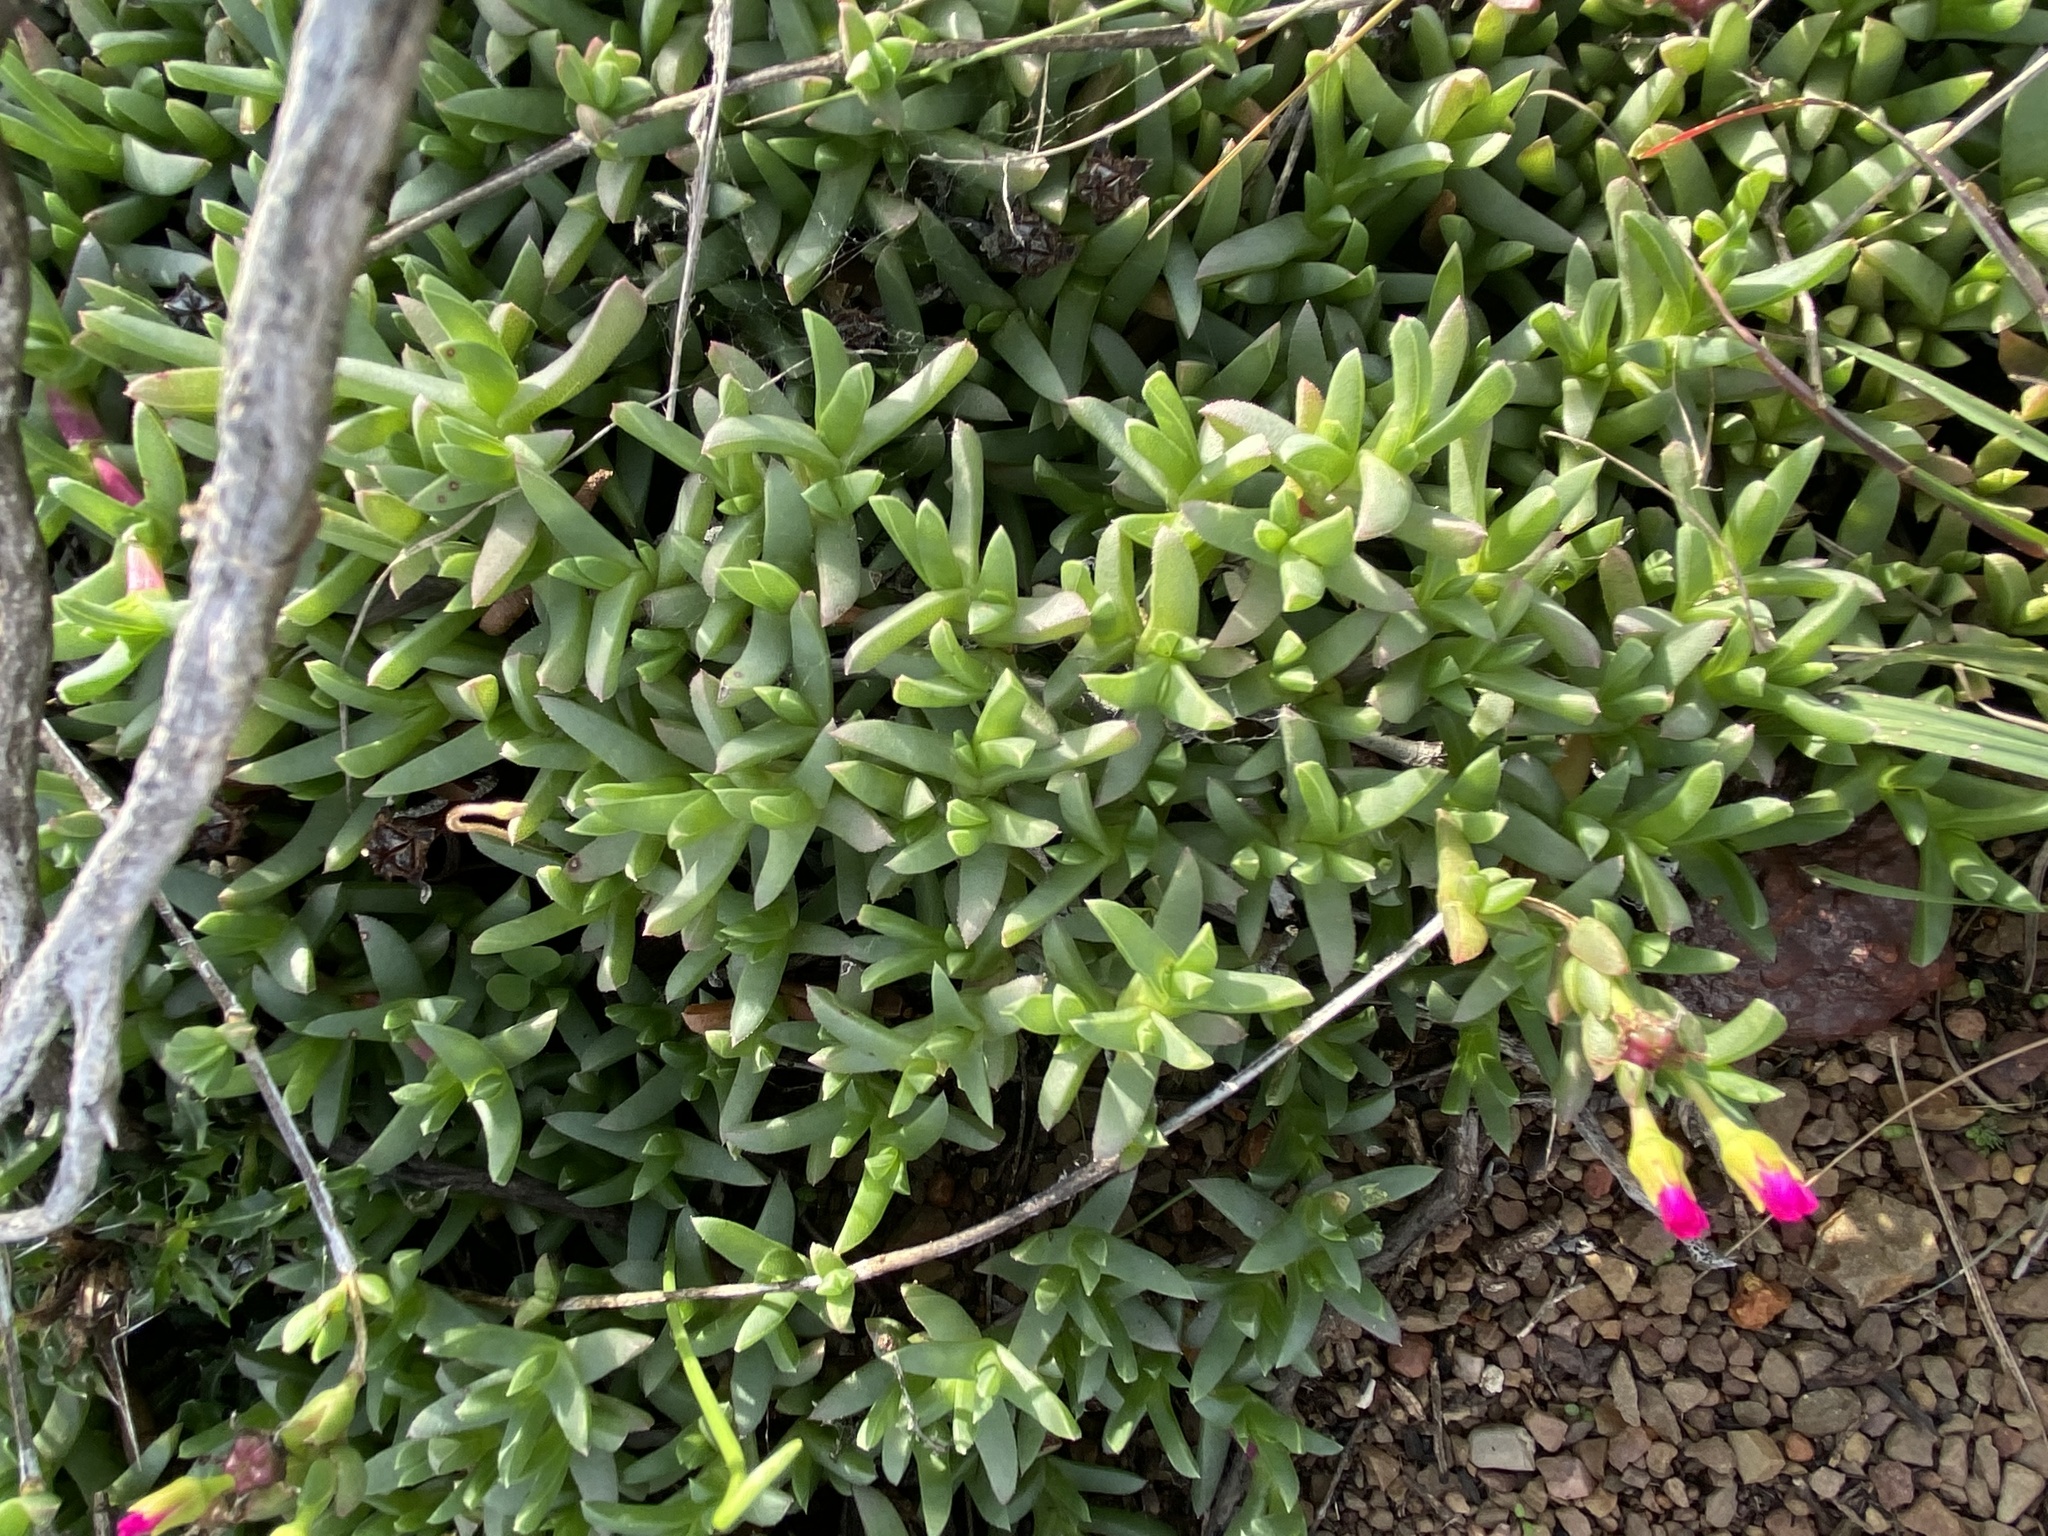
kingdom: Plantae
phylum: Tracheophyta
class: Magnoliopsida
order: Caryophyllales
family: Aizoaceae
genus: Ruschia
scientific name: Ruschia lineolata
